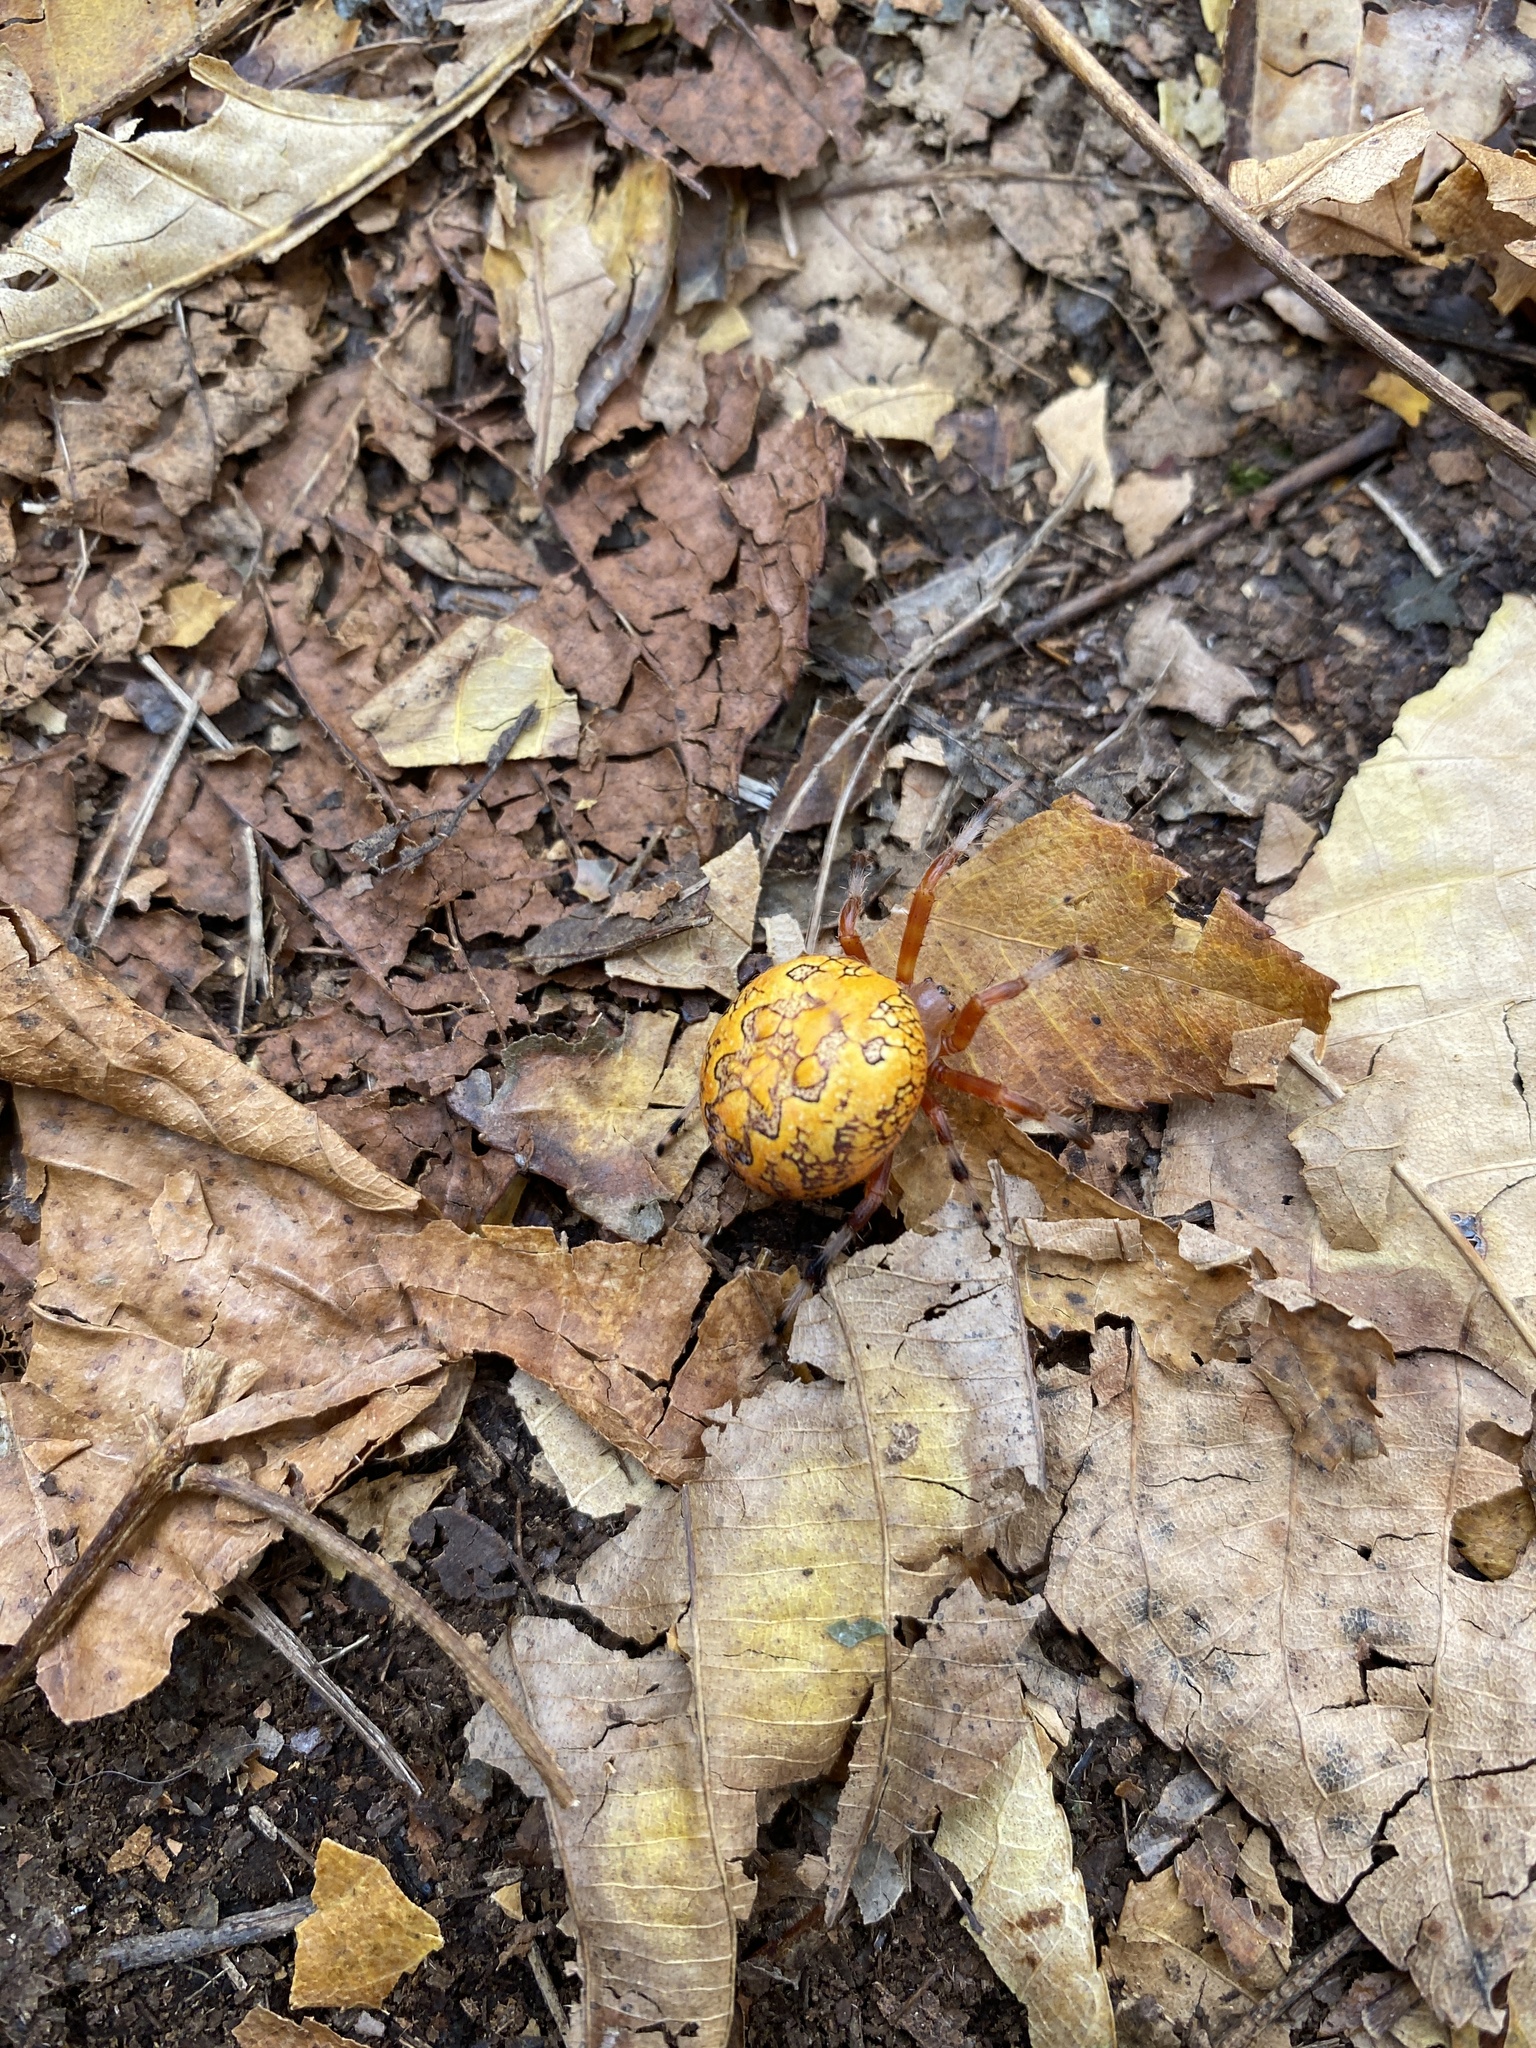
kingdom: Animalia
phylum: Arthropoda
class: Arachnida
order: Araneae
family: Araneidae
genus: Araneus
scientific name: Araneus marmoreus
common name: Marbled orbweaver
